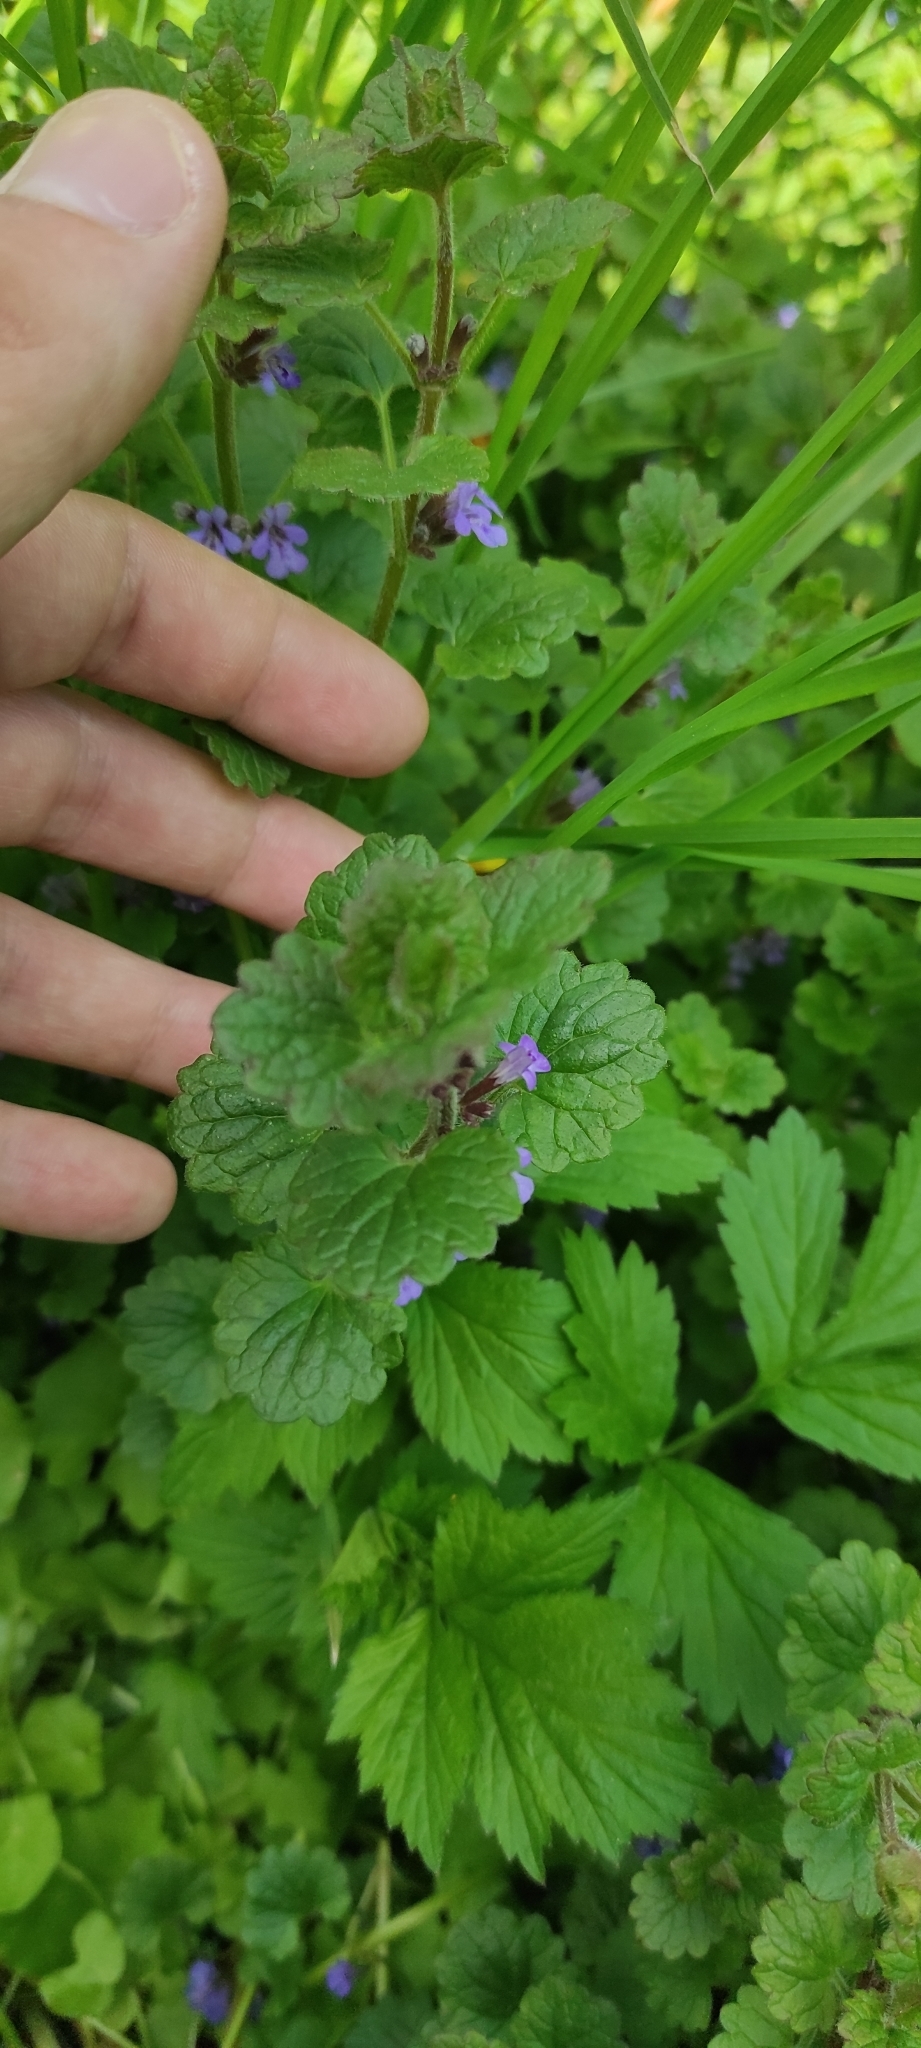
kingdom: Plantae
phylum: Tracheophyta
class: Magnoliopsida
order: Lamiales
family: Lamiaceae
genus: Glechoma
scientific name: Glechoma hederacea
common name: Ground ivy
